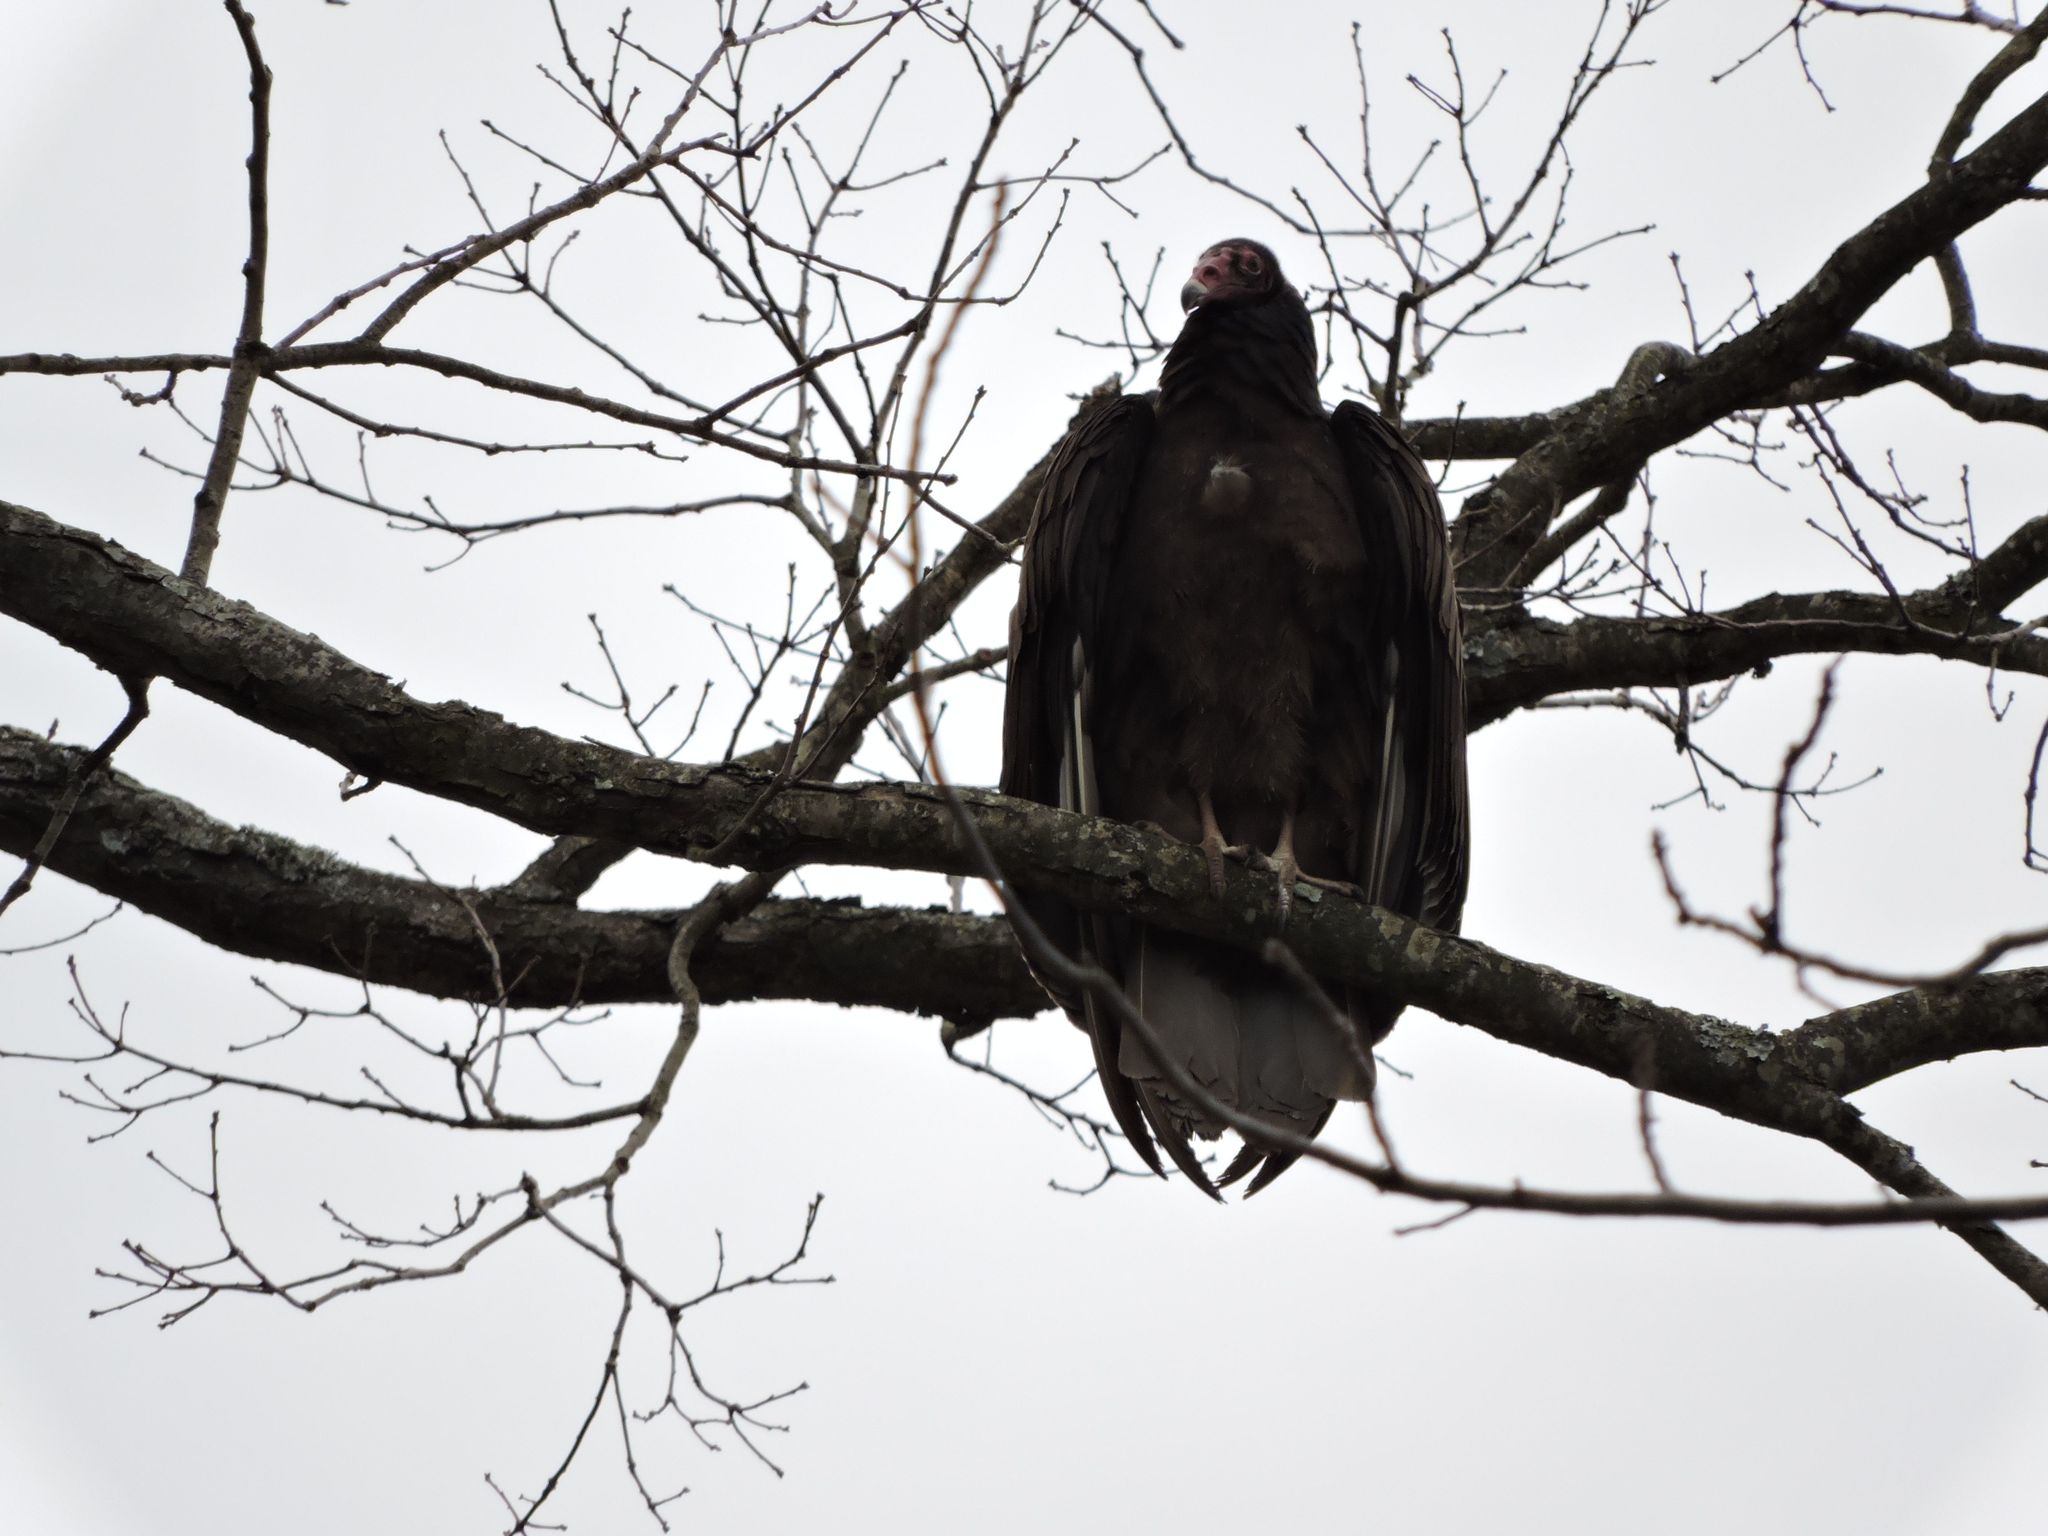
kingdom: Animalia
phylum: Chordata
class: Aves
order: Accipitriformes
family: Cathartidae
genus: Cathartes
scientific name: Cathartes aura
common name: Turkey vulture
